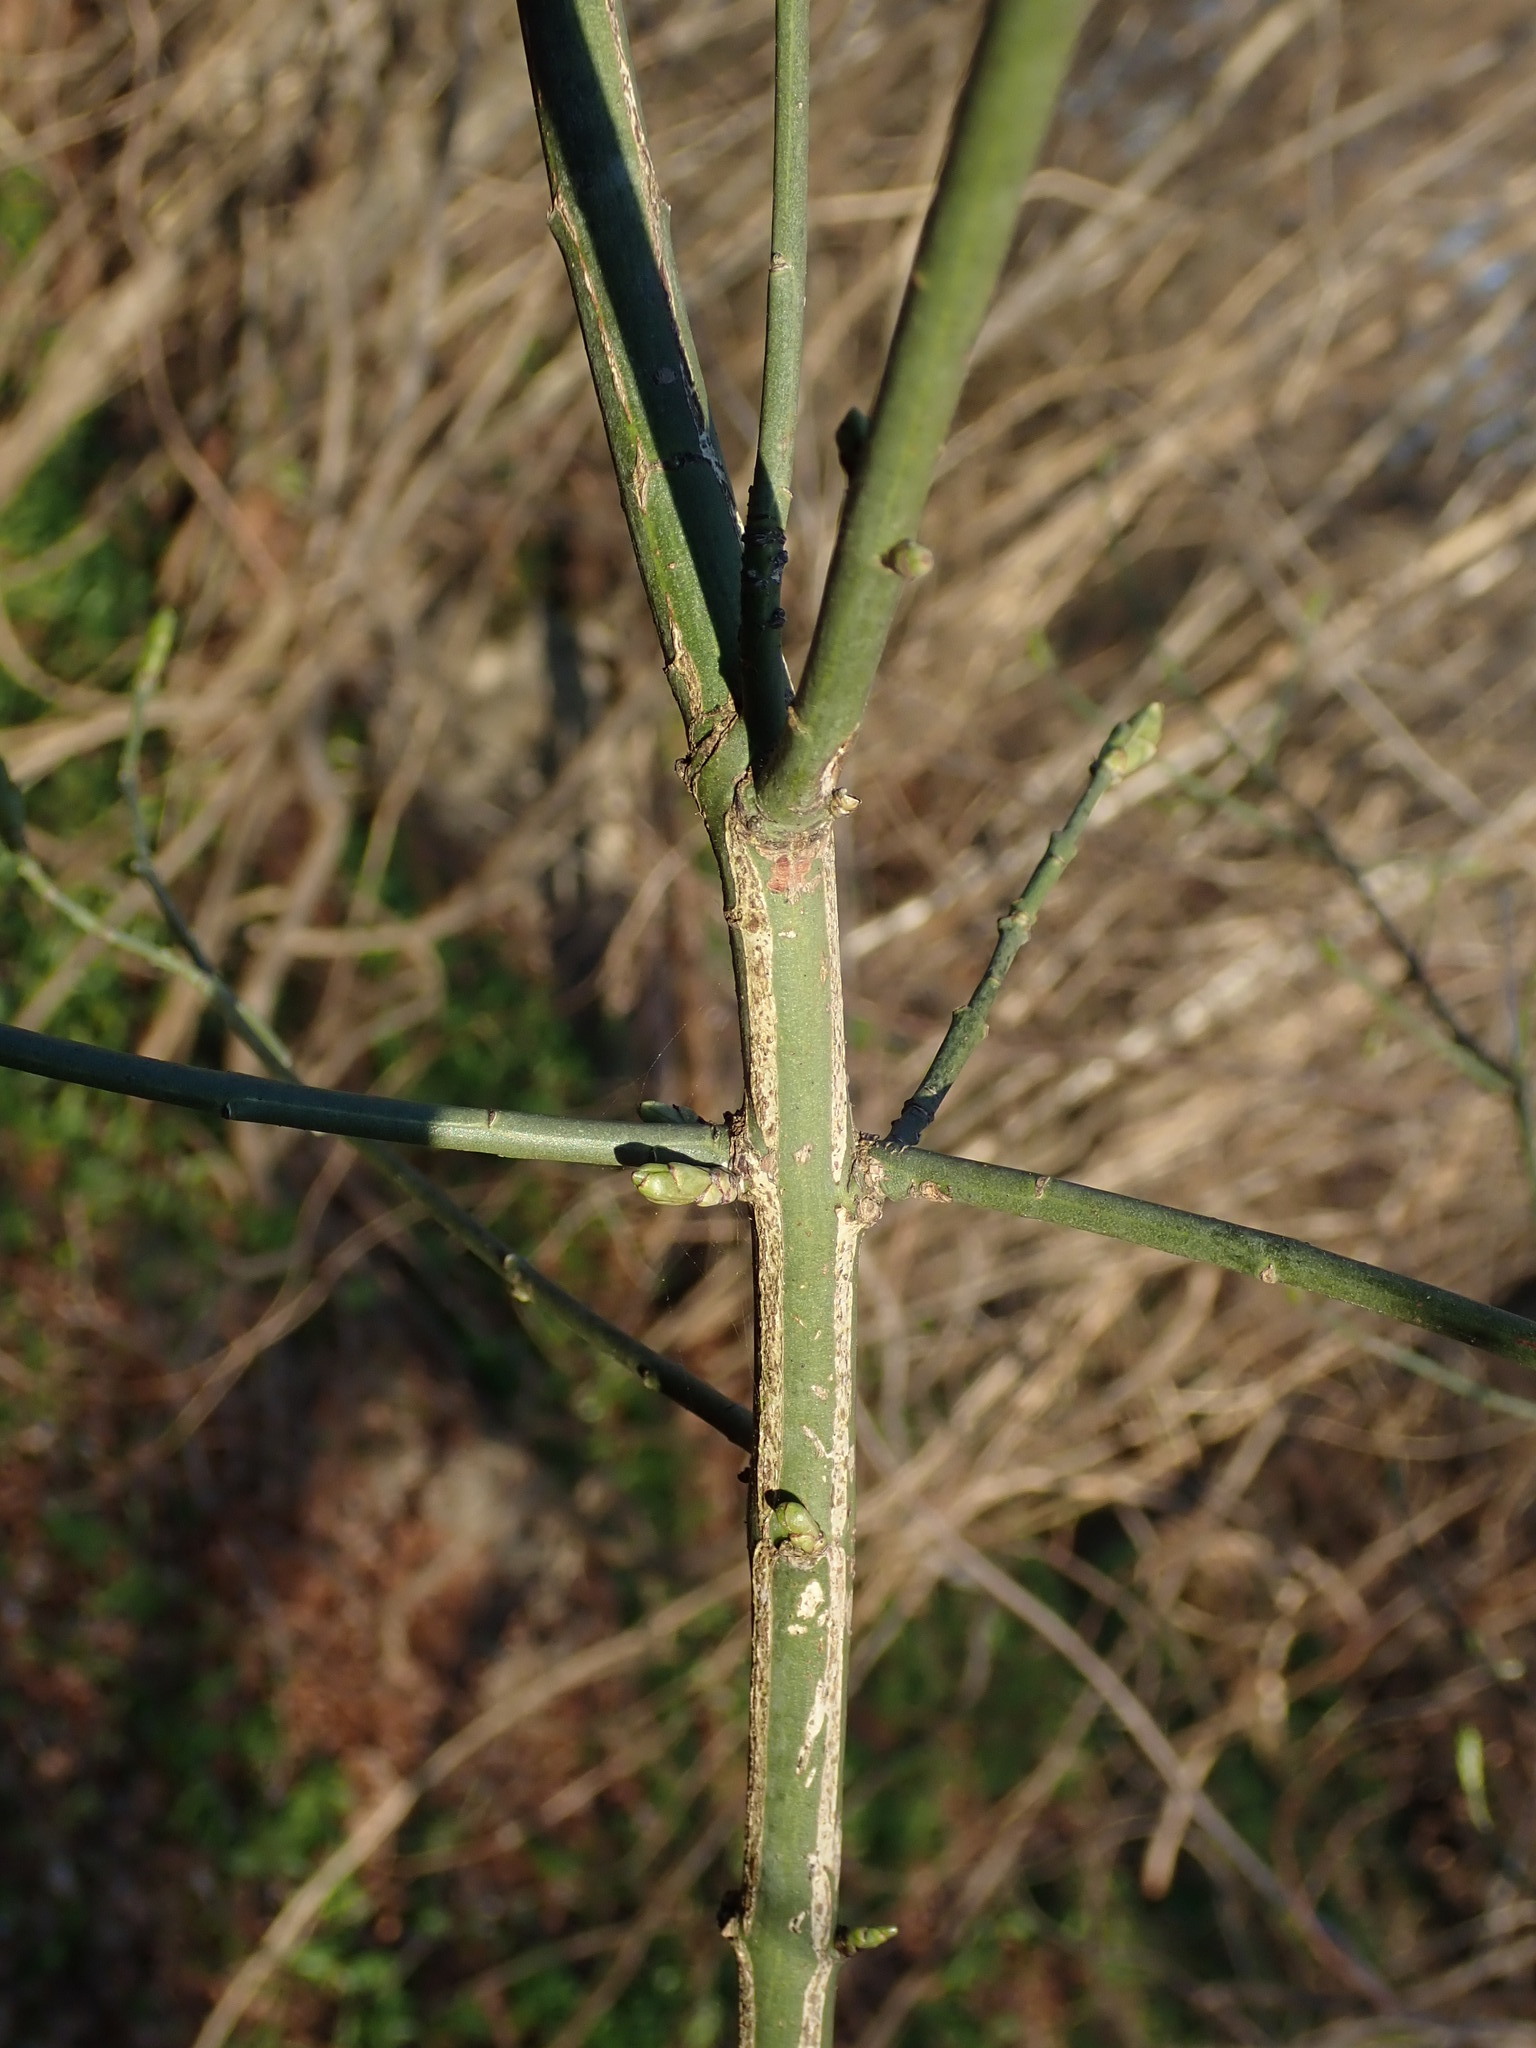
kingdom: Plantae
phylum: Tracheophyta
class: Magnoliopsida
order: Celastrales
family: Celastraceae
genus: Euonymus
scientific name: Euonymus europaeus
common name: Spindle
